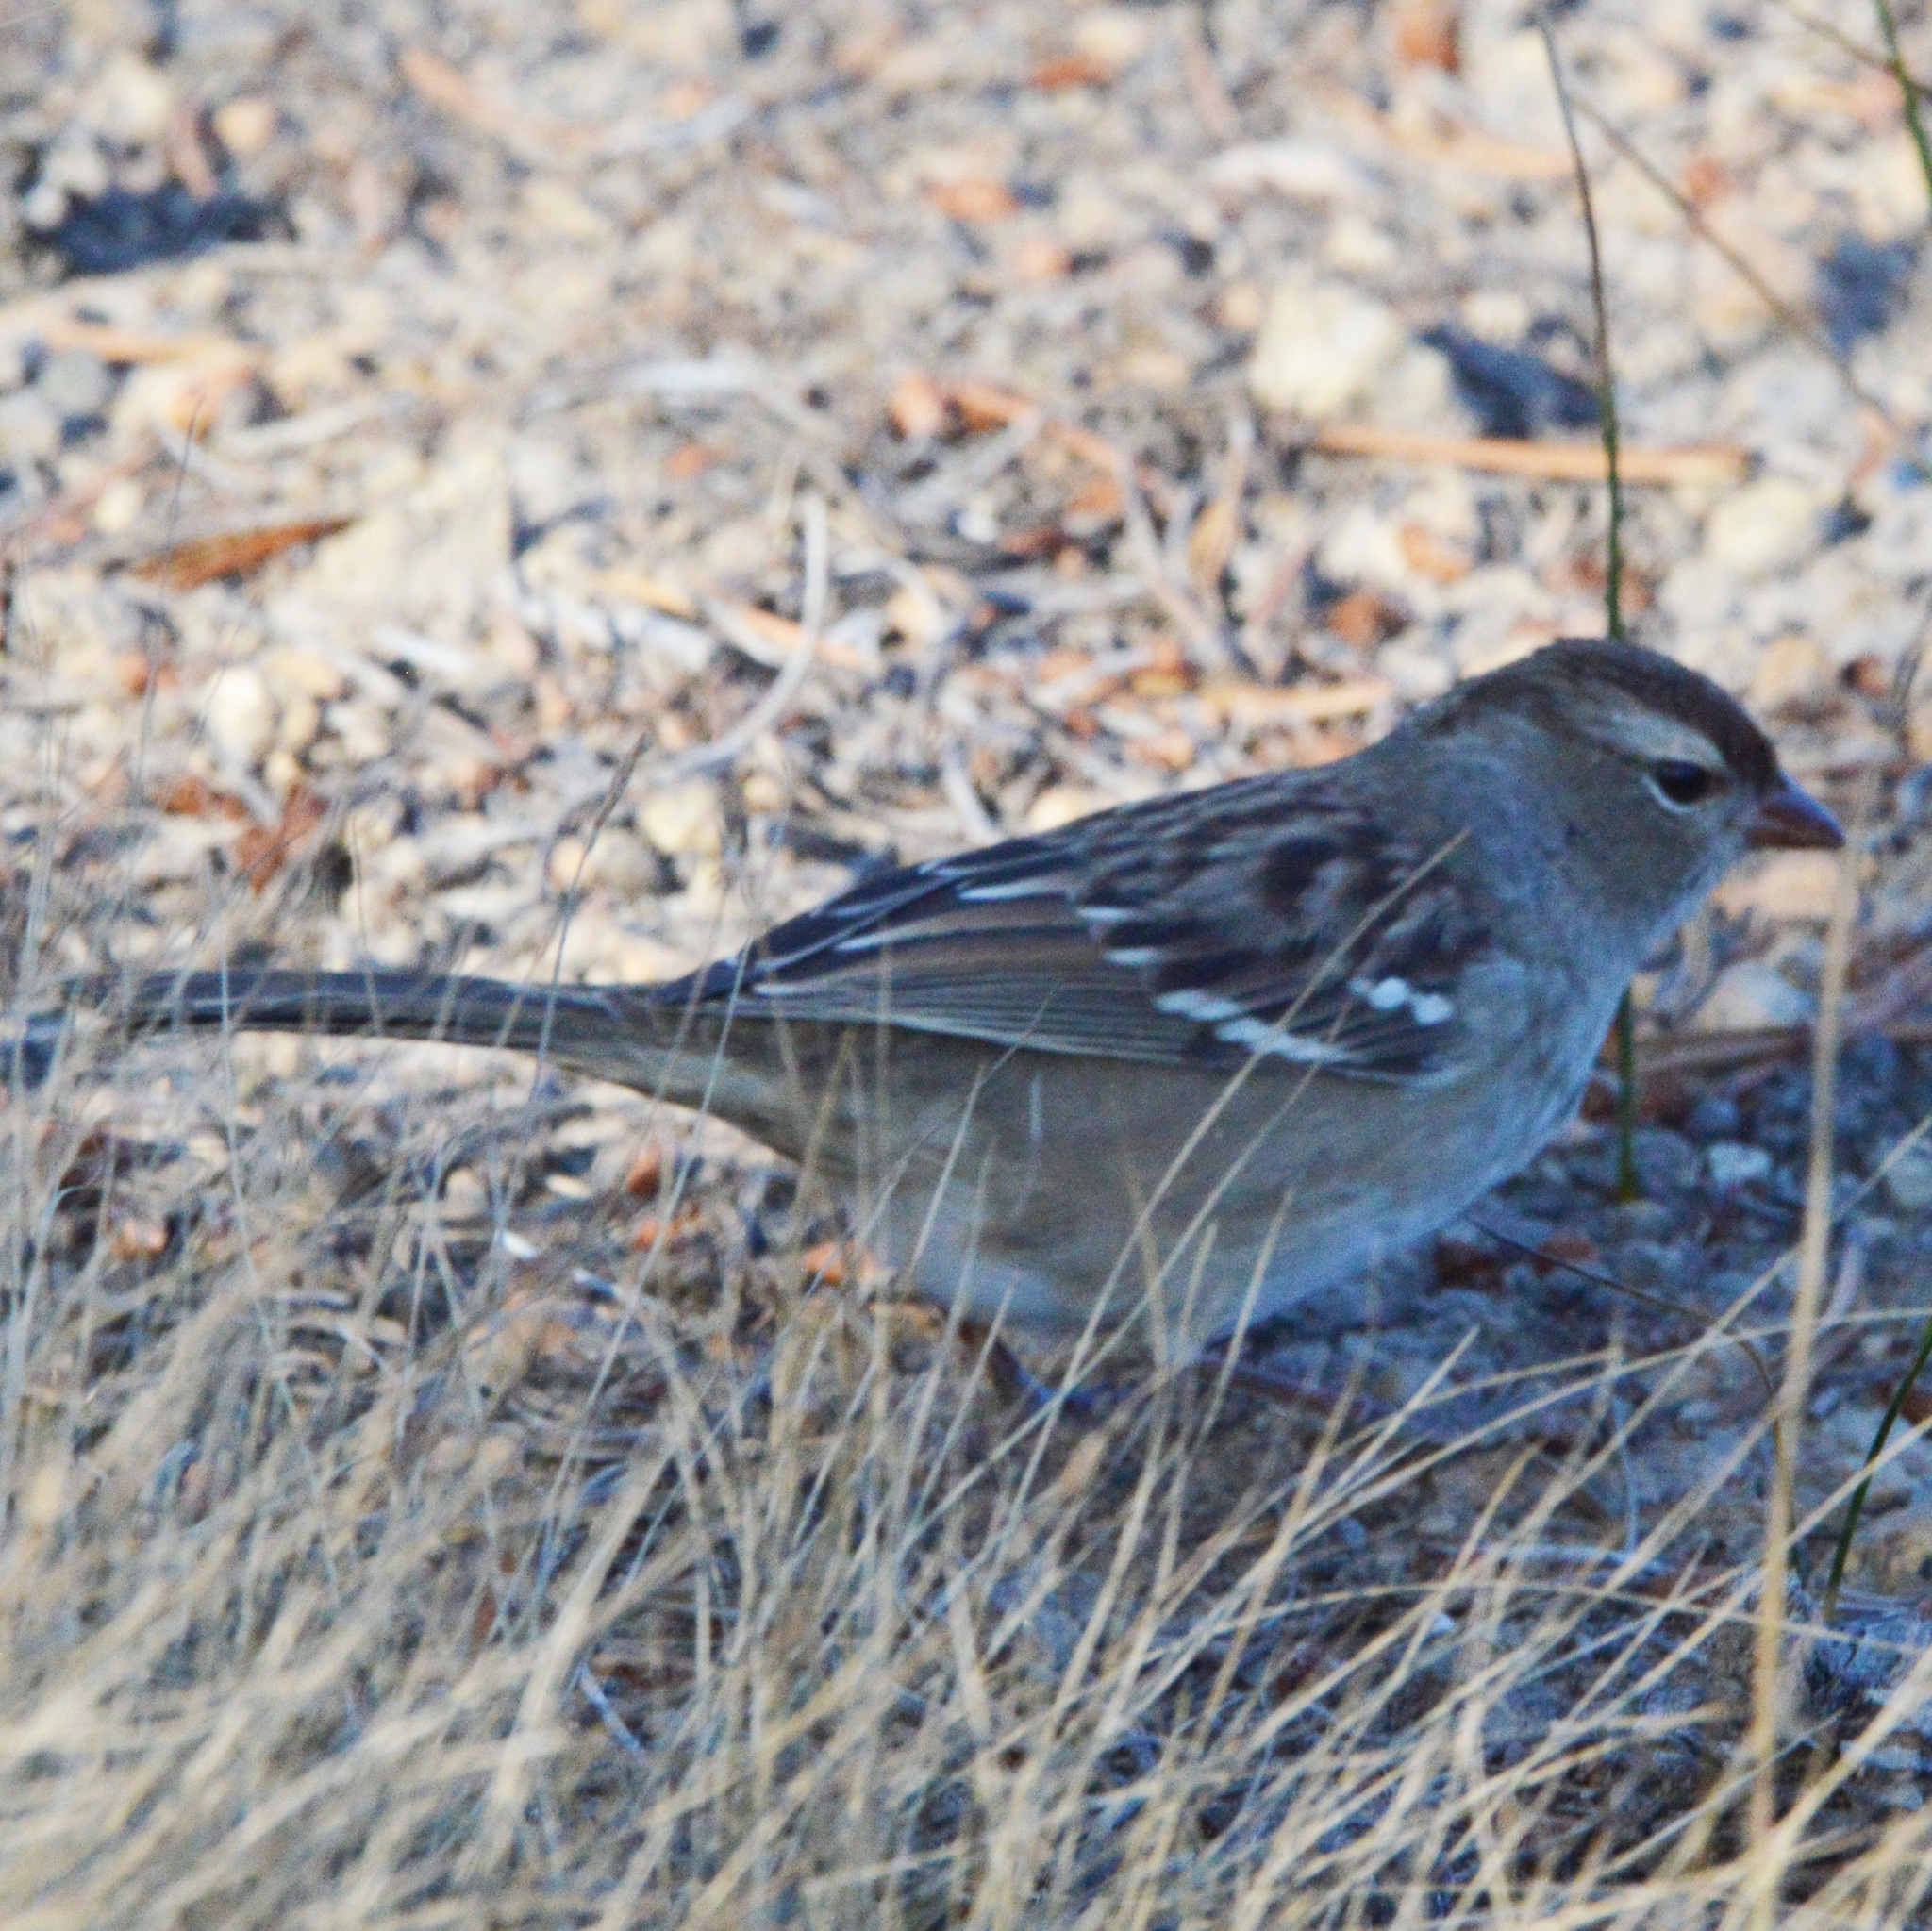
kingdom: Animalia
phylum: Chordata
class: Aves
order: Passeriformes
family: Passerellidae
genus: Zonotrichia
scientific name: Zonotrichia leucophrys
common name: White-crowned sparrow
